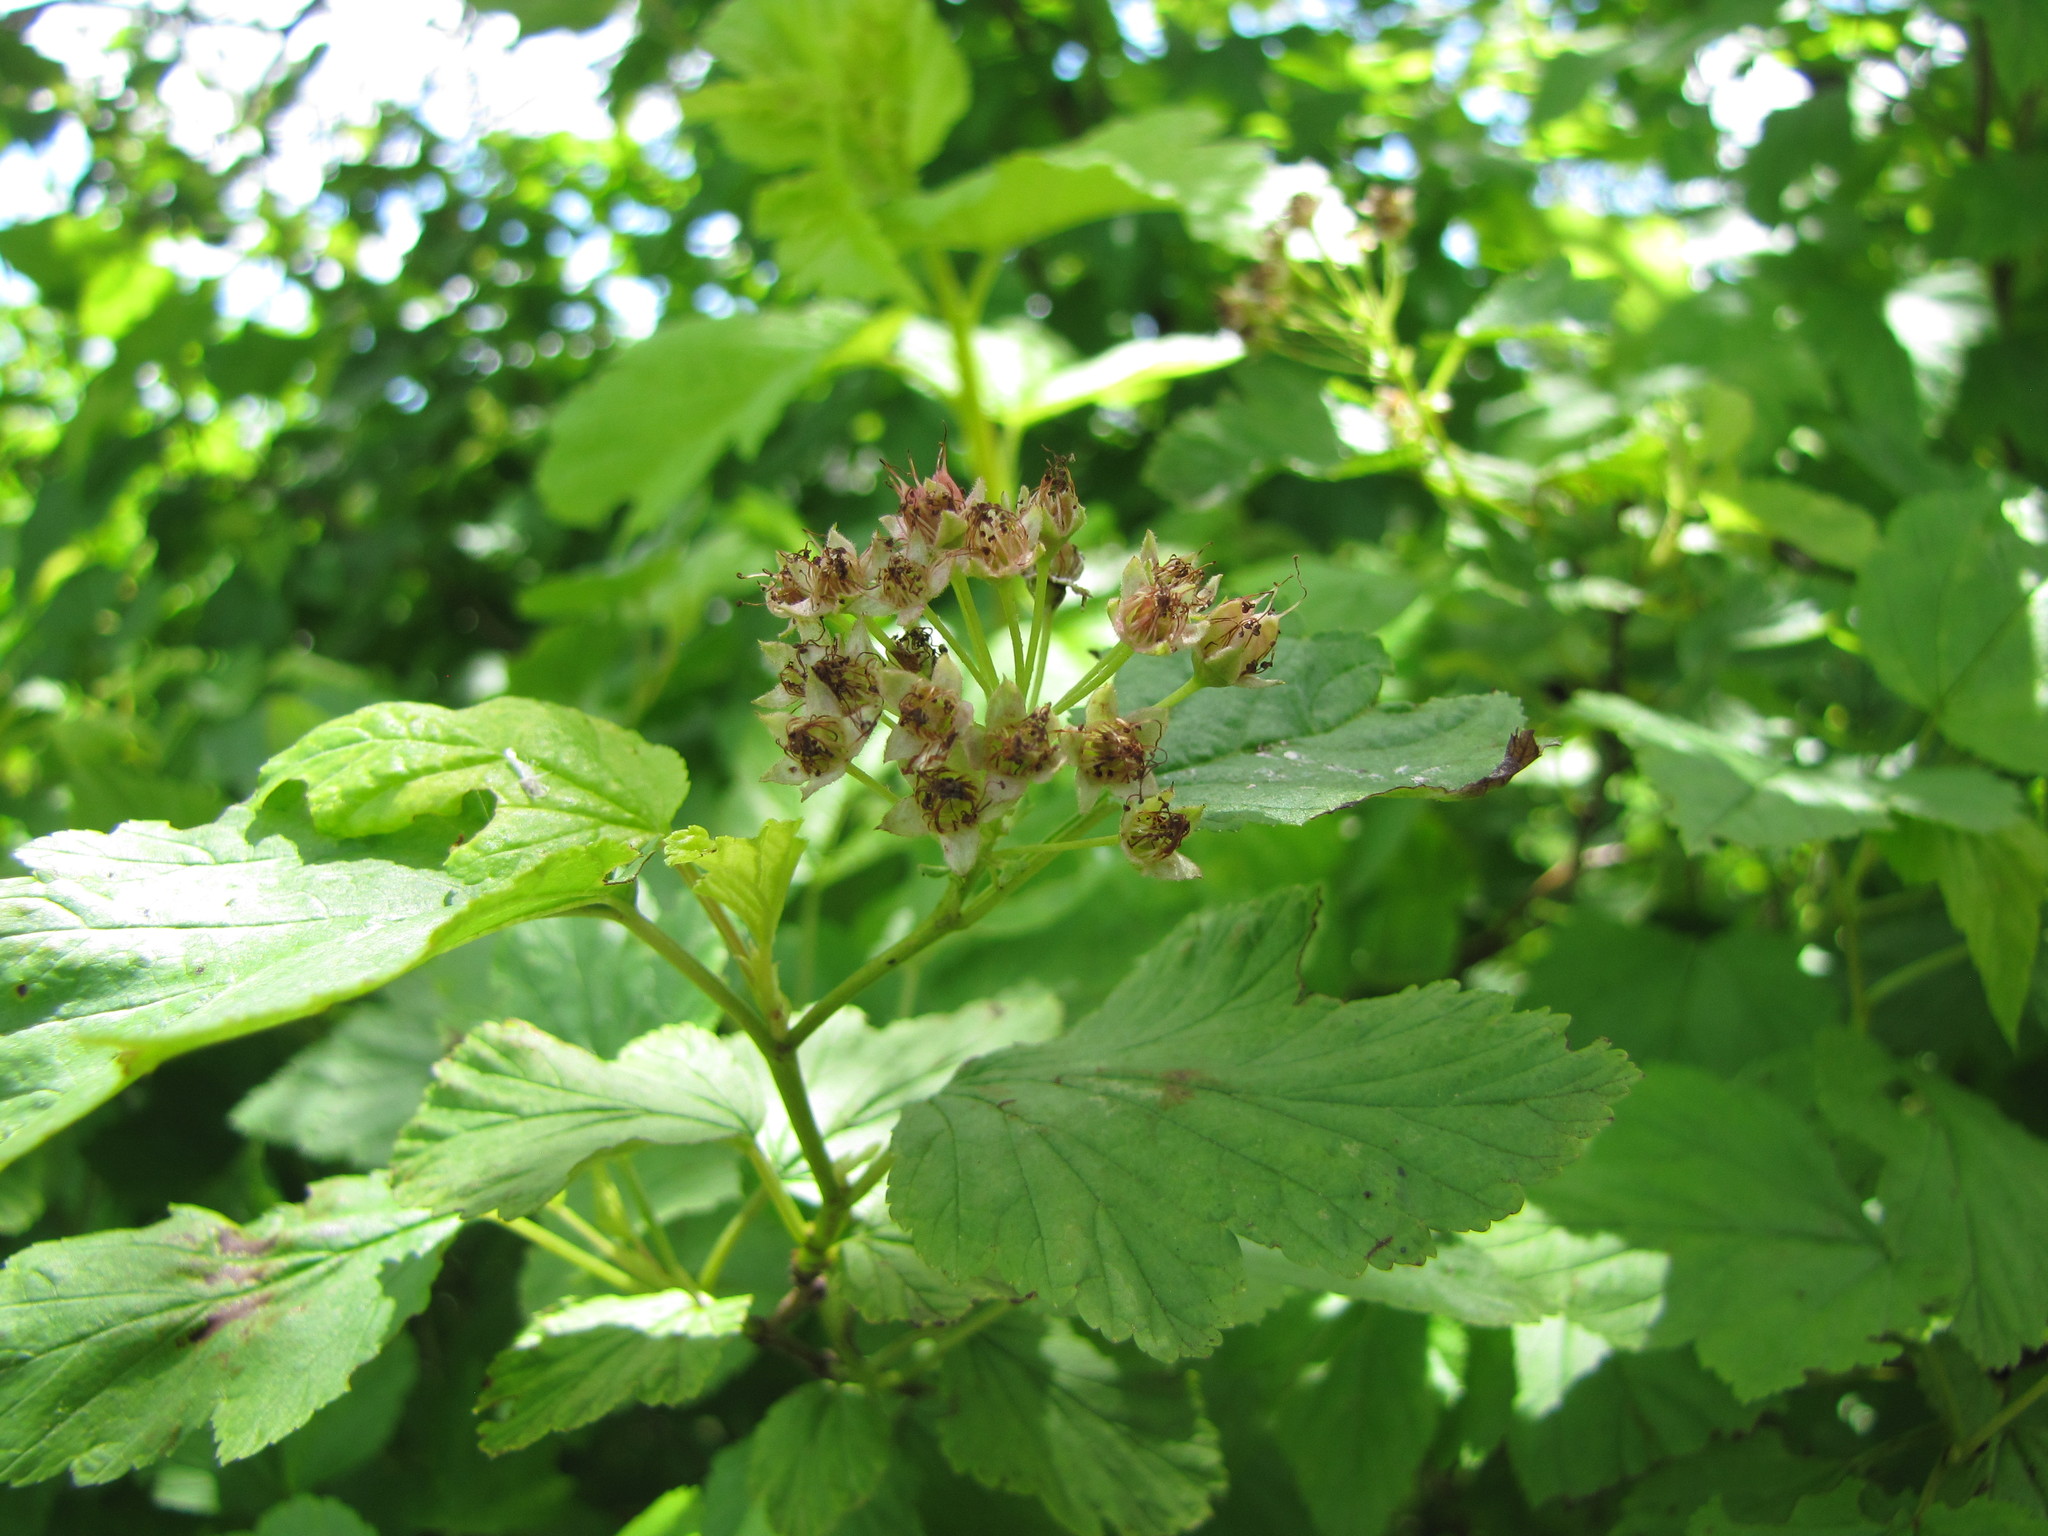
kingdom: Plantae
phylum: Tracheophyta
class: Magnoliopsida
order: Rosales
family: Rosaceae
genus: Physocarpus
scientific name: Physocarpus opulifolius
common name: Ninebark
